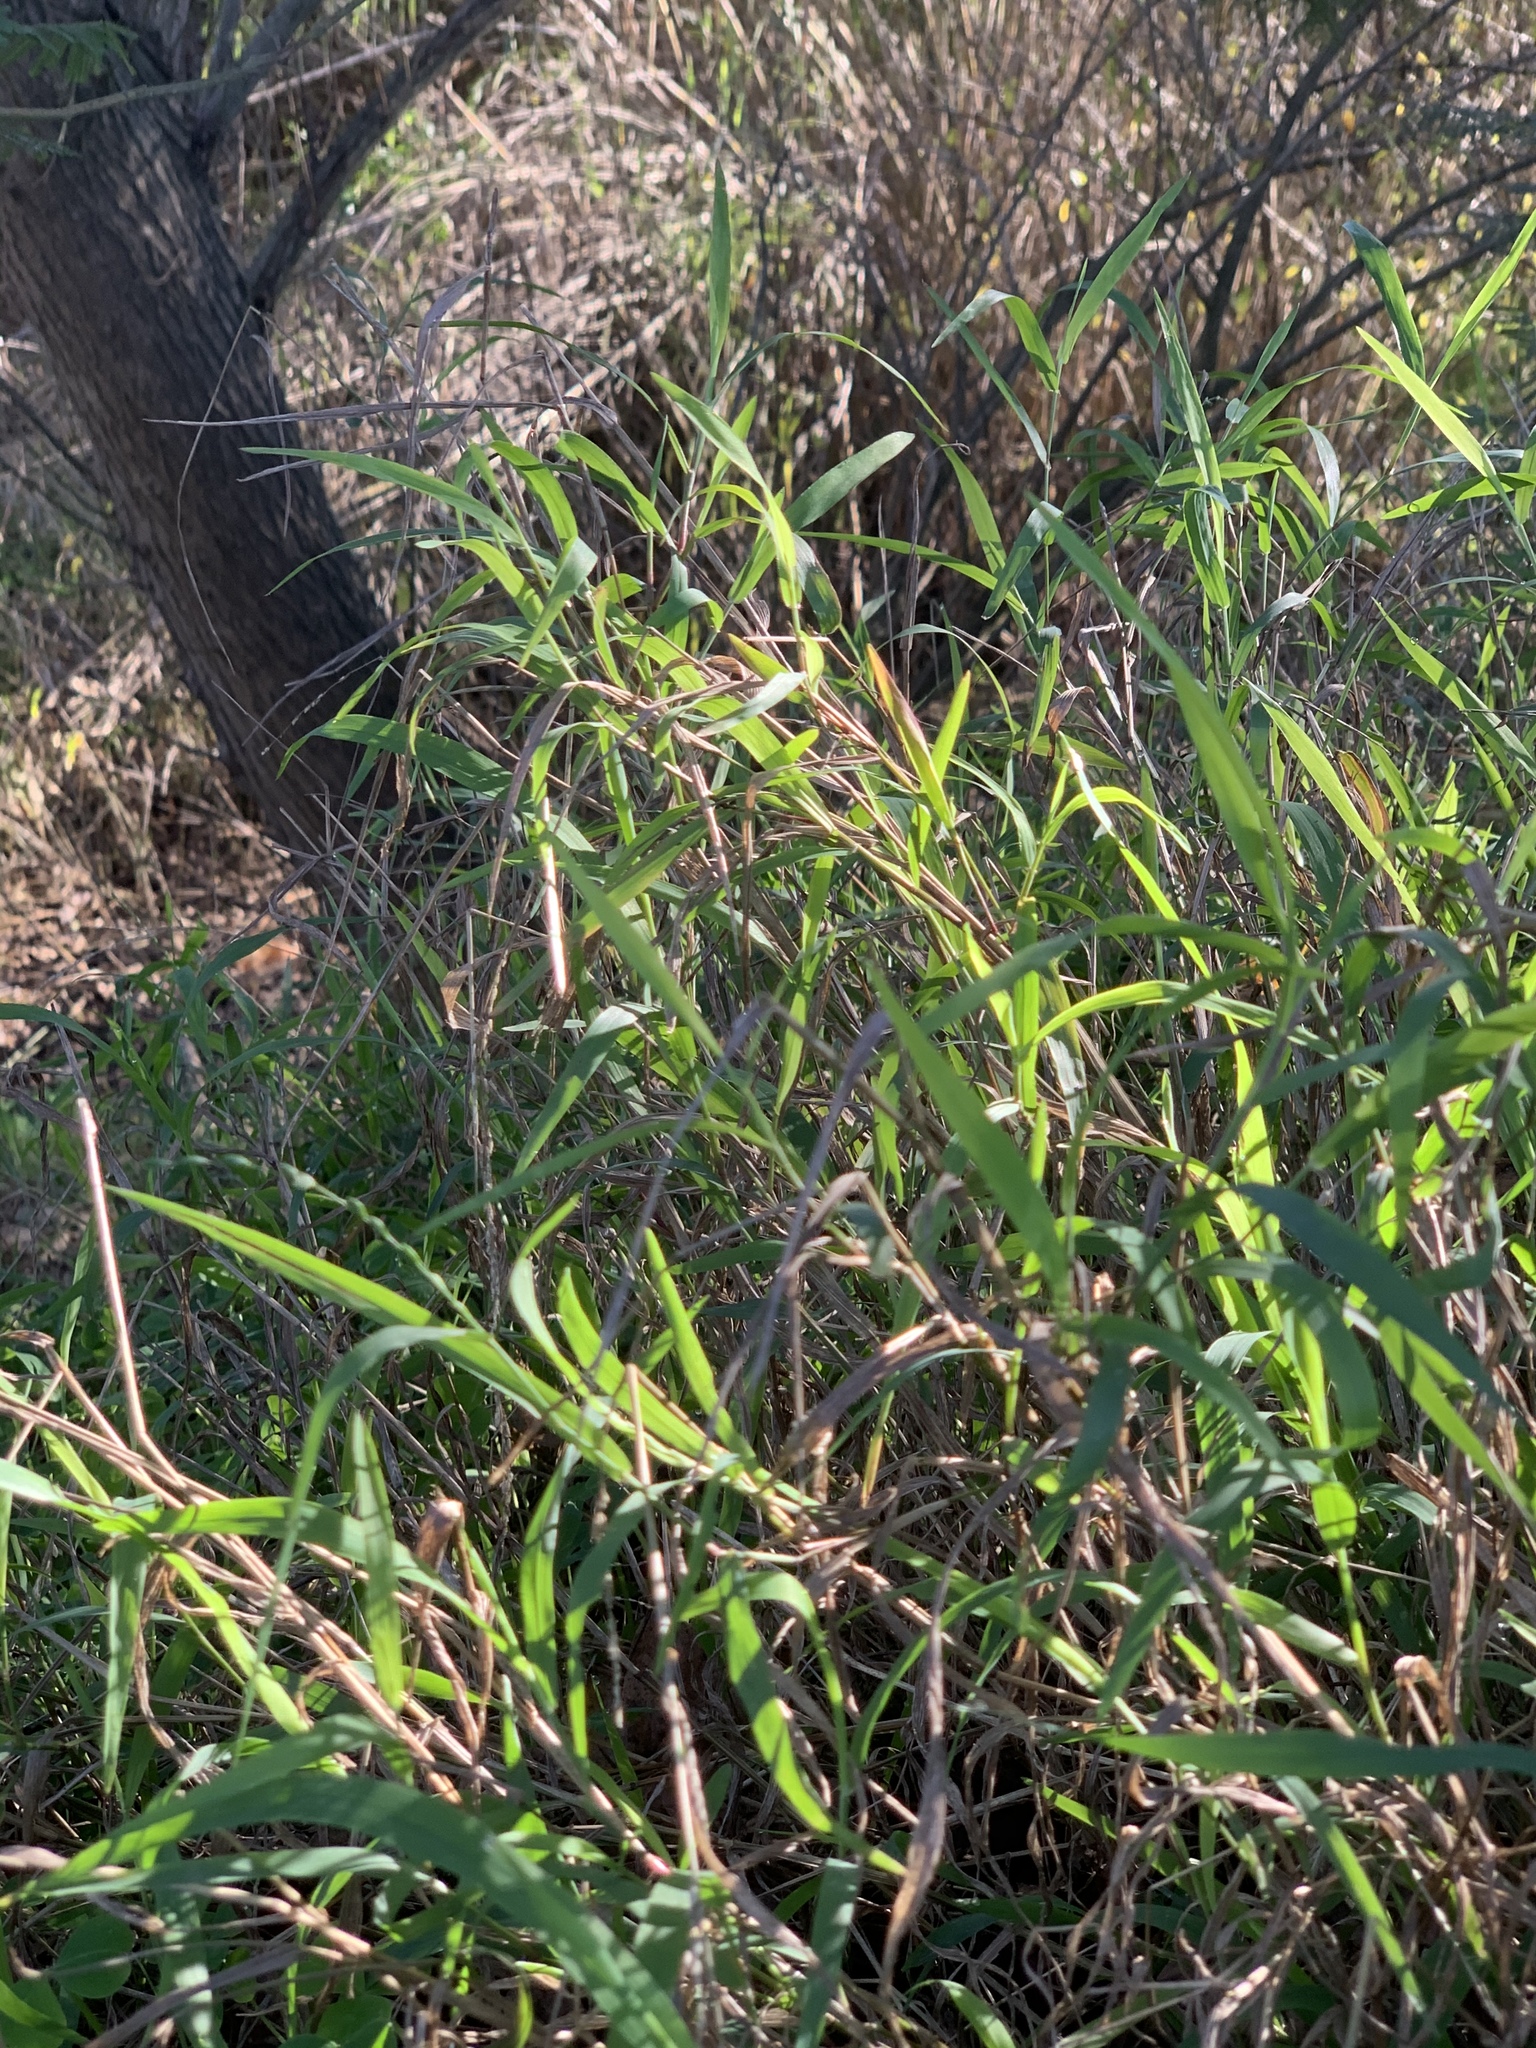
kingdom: Plantae
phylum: Tracheophyta
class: Liliopsida
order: Poales
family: Poaceae
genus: Ehrharta
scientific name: Ehrharta erecta
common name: Panic veldtgrass
